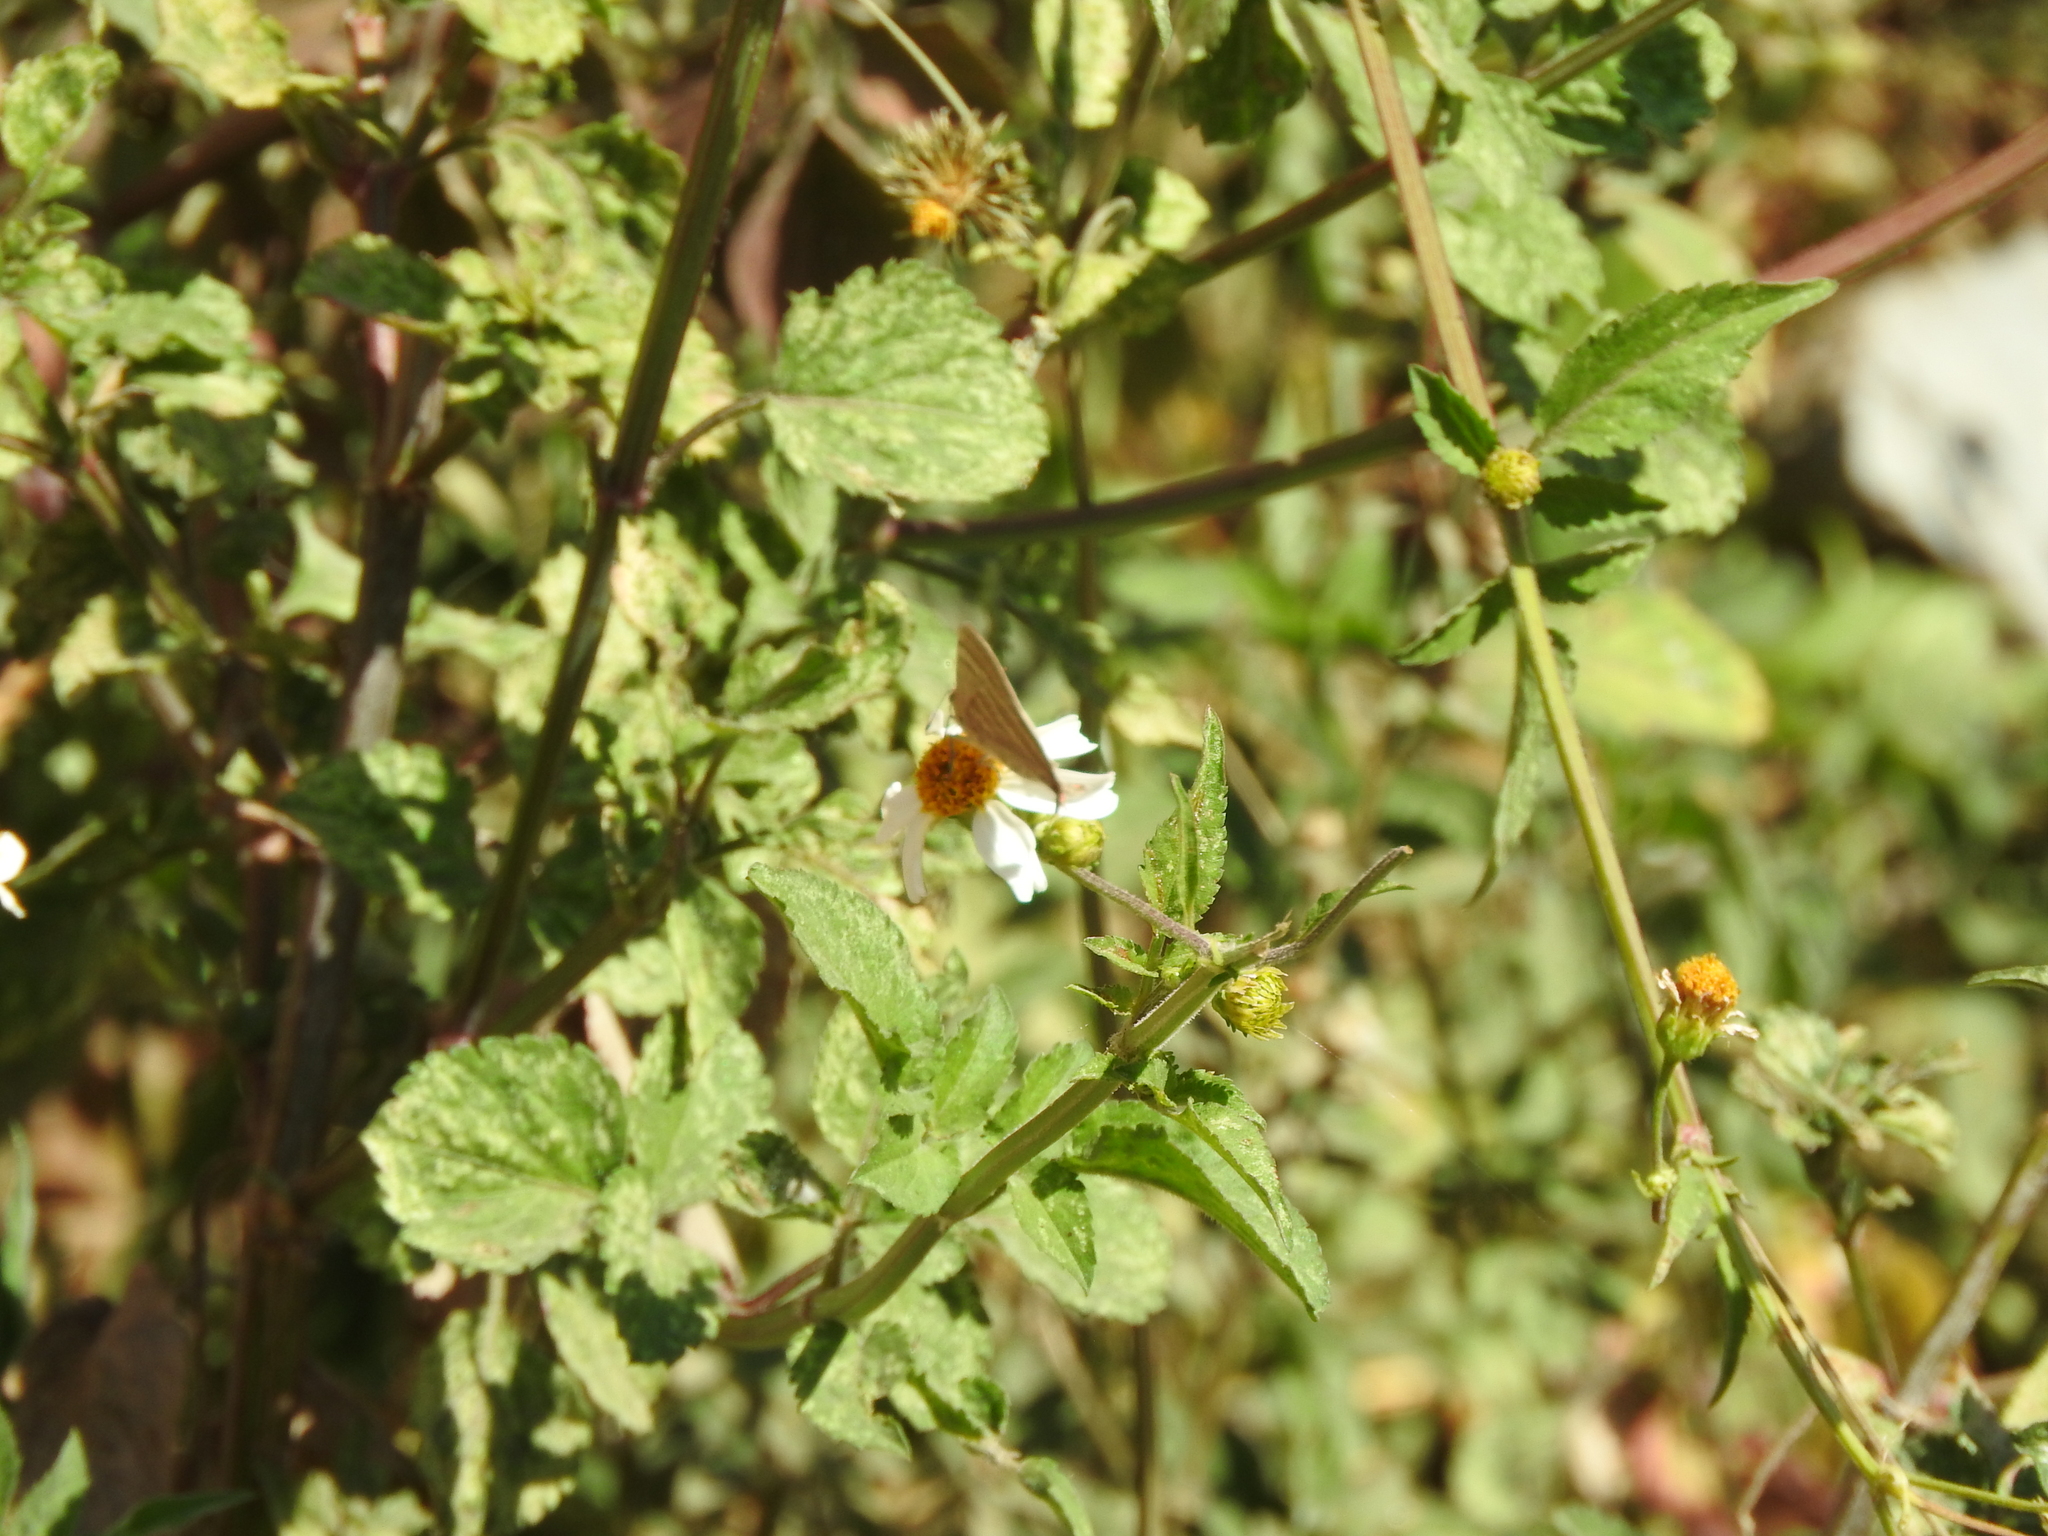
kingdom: Plantae
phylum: Tracheophyta
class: Magnoliopsida
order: Asterales
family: Asteraceae
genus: Bidens
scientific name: Bidens odorata
